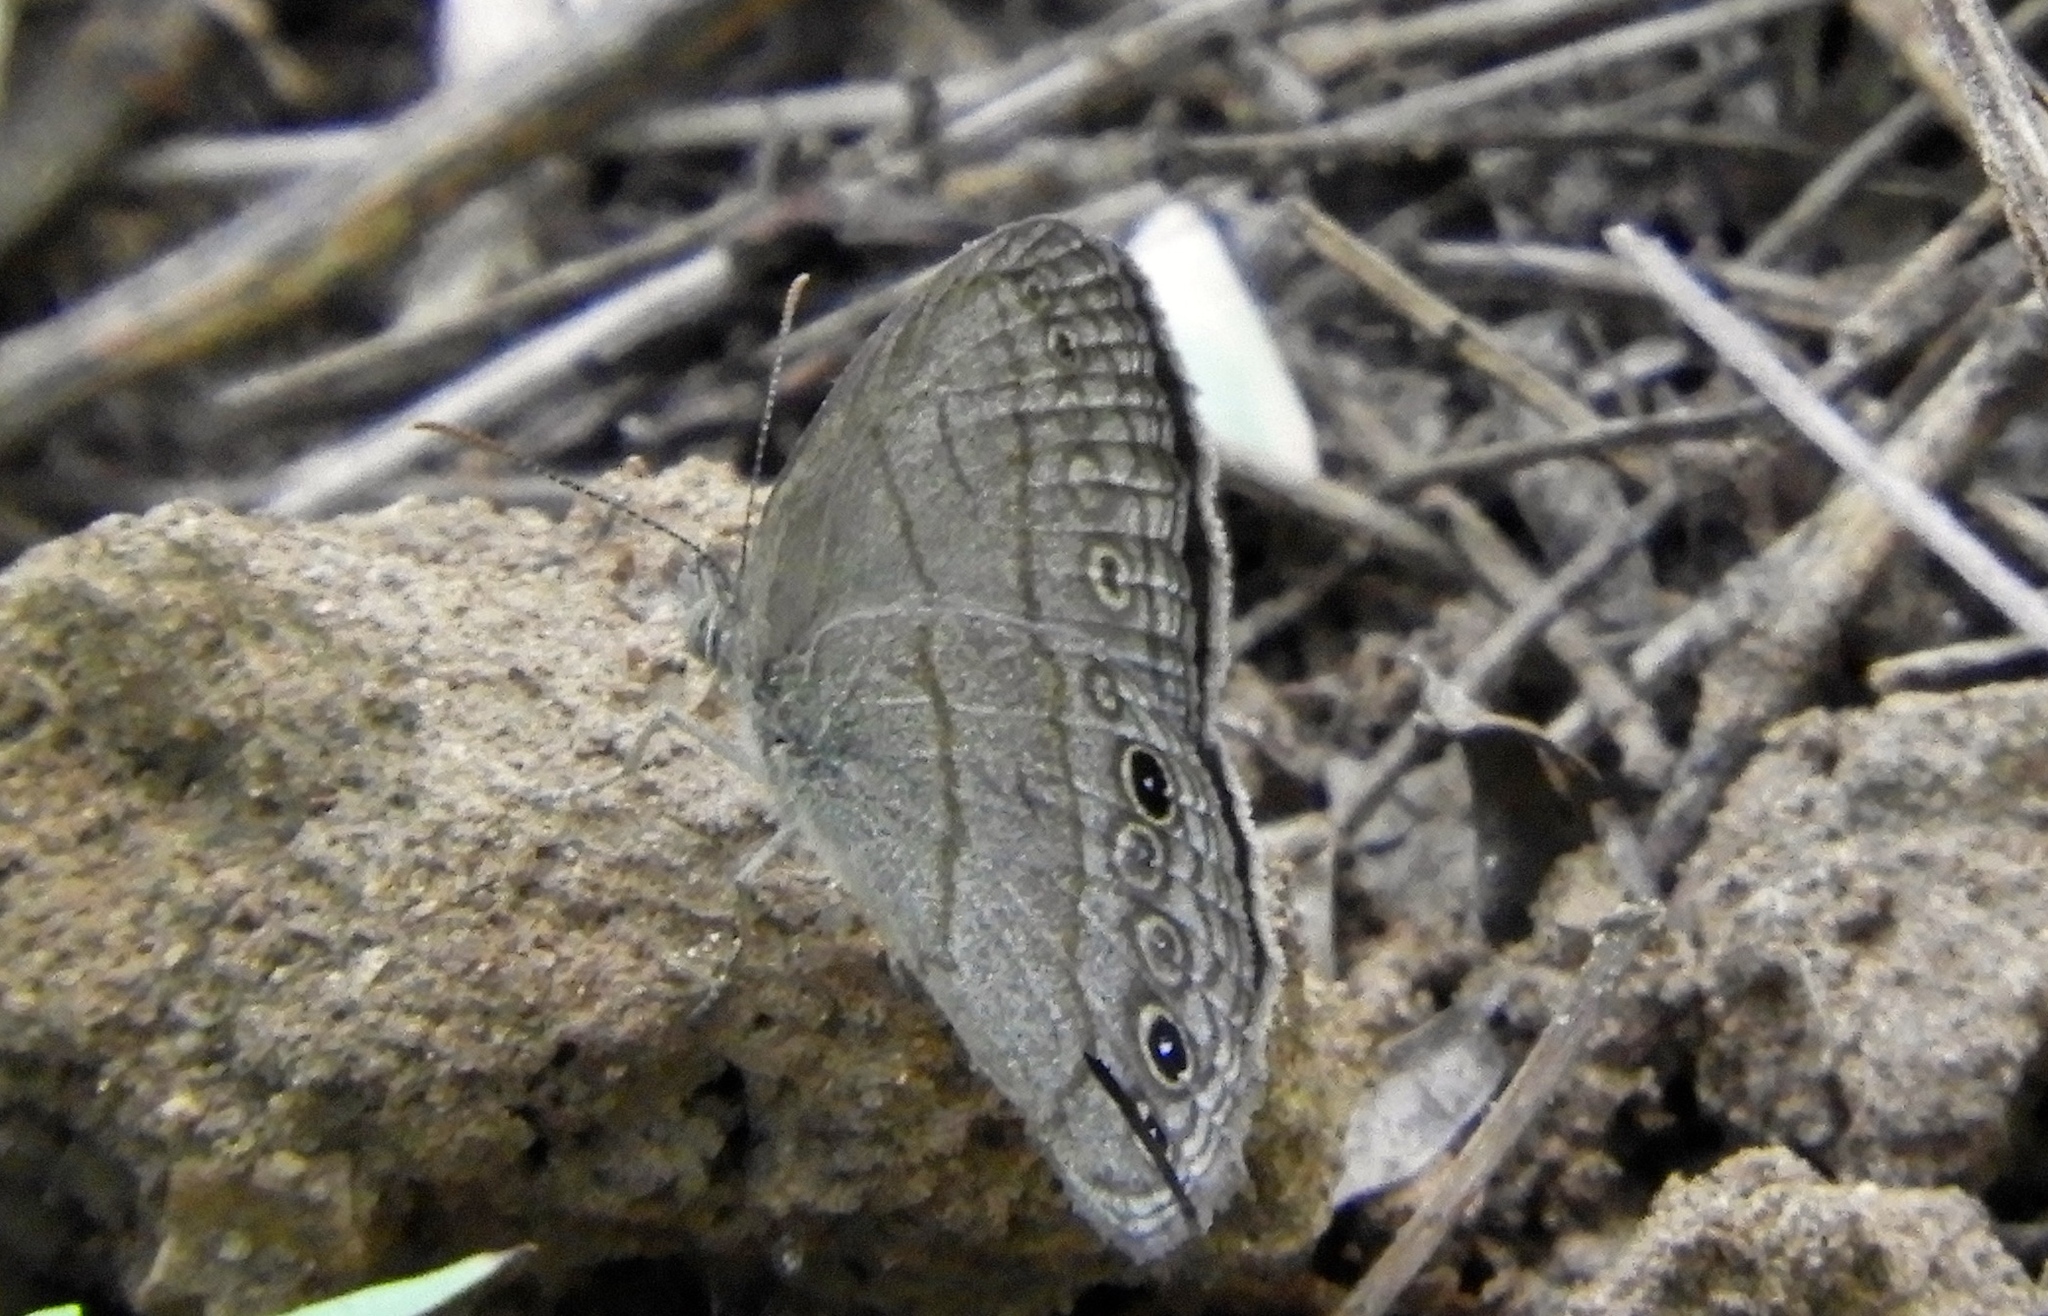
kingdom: Animalia
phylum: Arthropoda
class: Insecta
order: Lepidoptera
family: Nymphalidae
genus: Hermeuptychia
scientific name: Hermeuptychia
